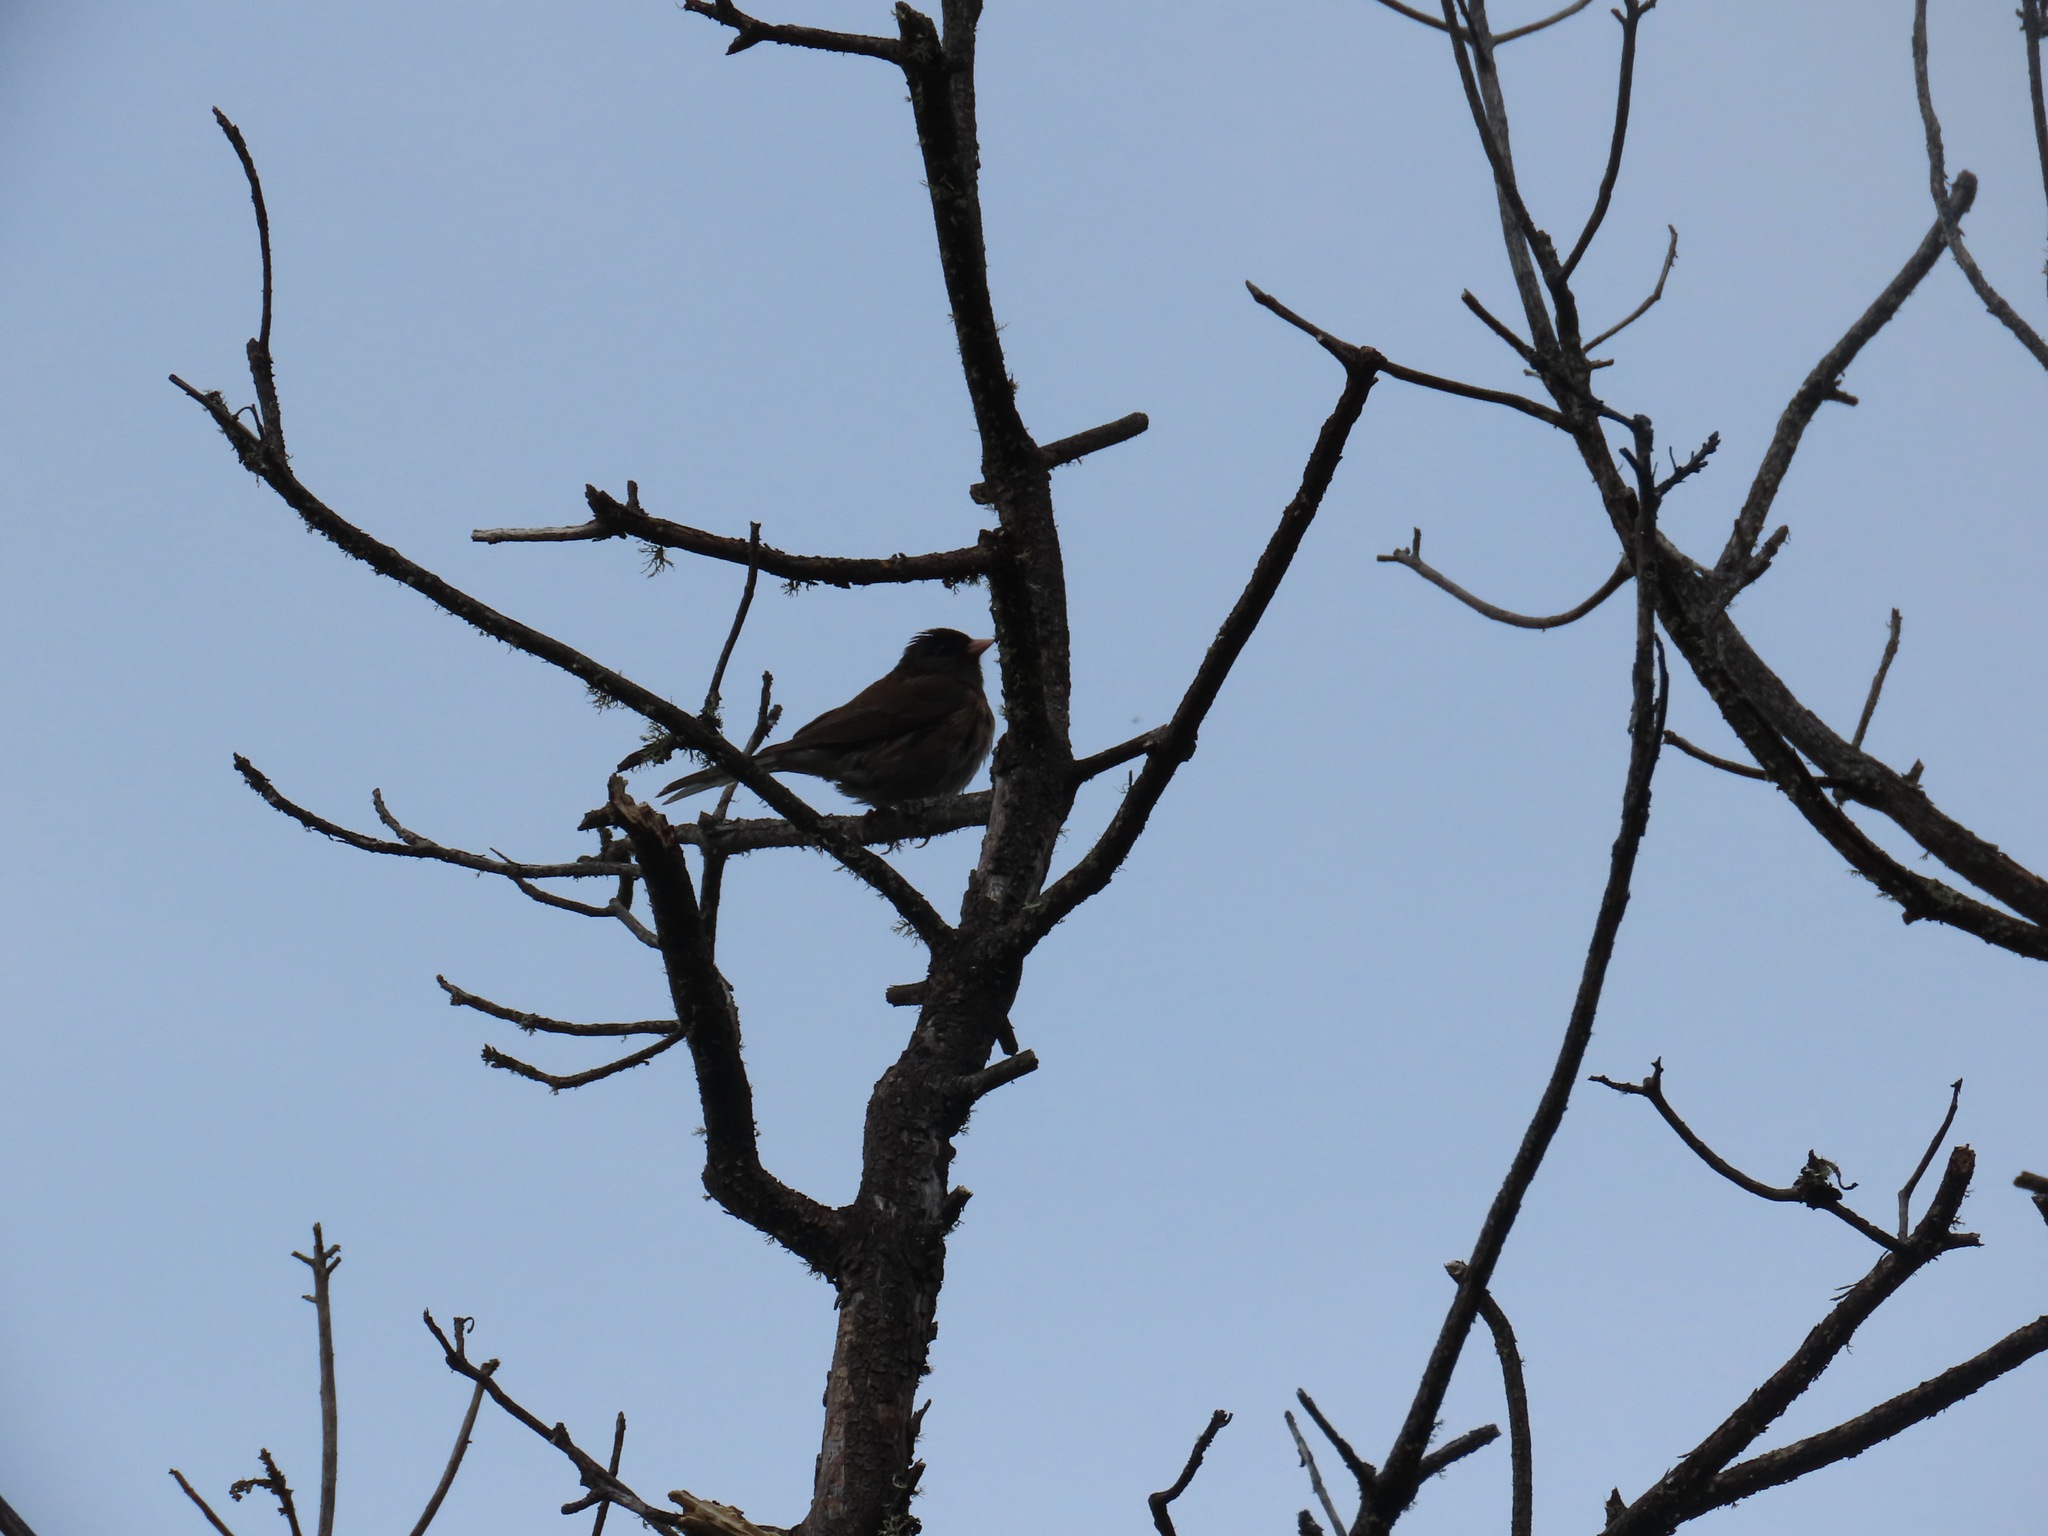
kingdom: Animalia
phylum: Chordata
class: Aves
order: Passeriformes
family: Passerellidae
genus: Junco
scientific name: Junco hyemalis
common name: Dark-eyed junco
